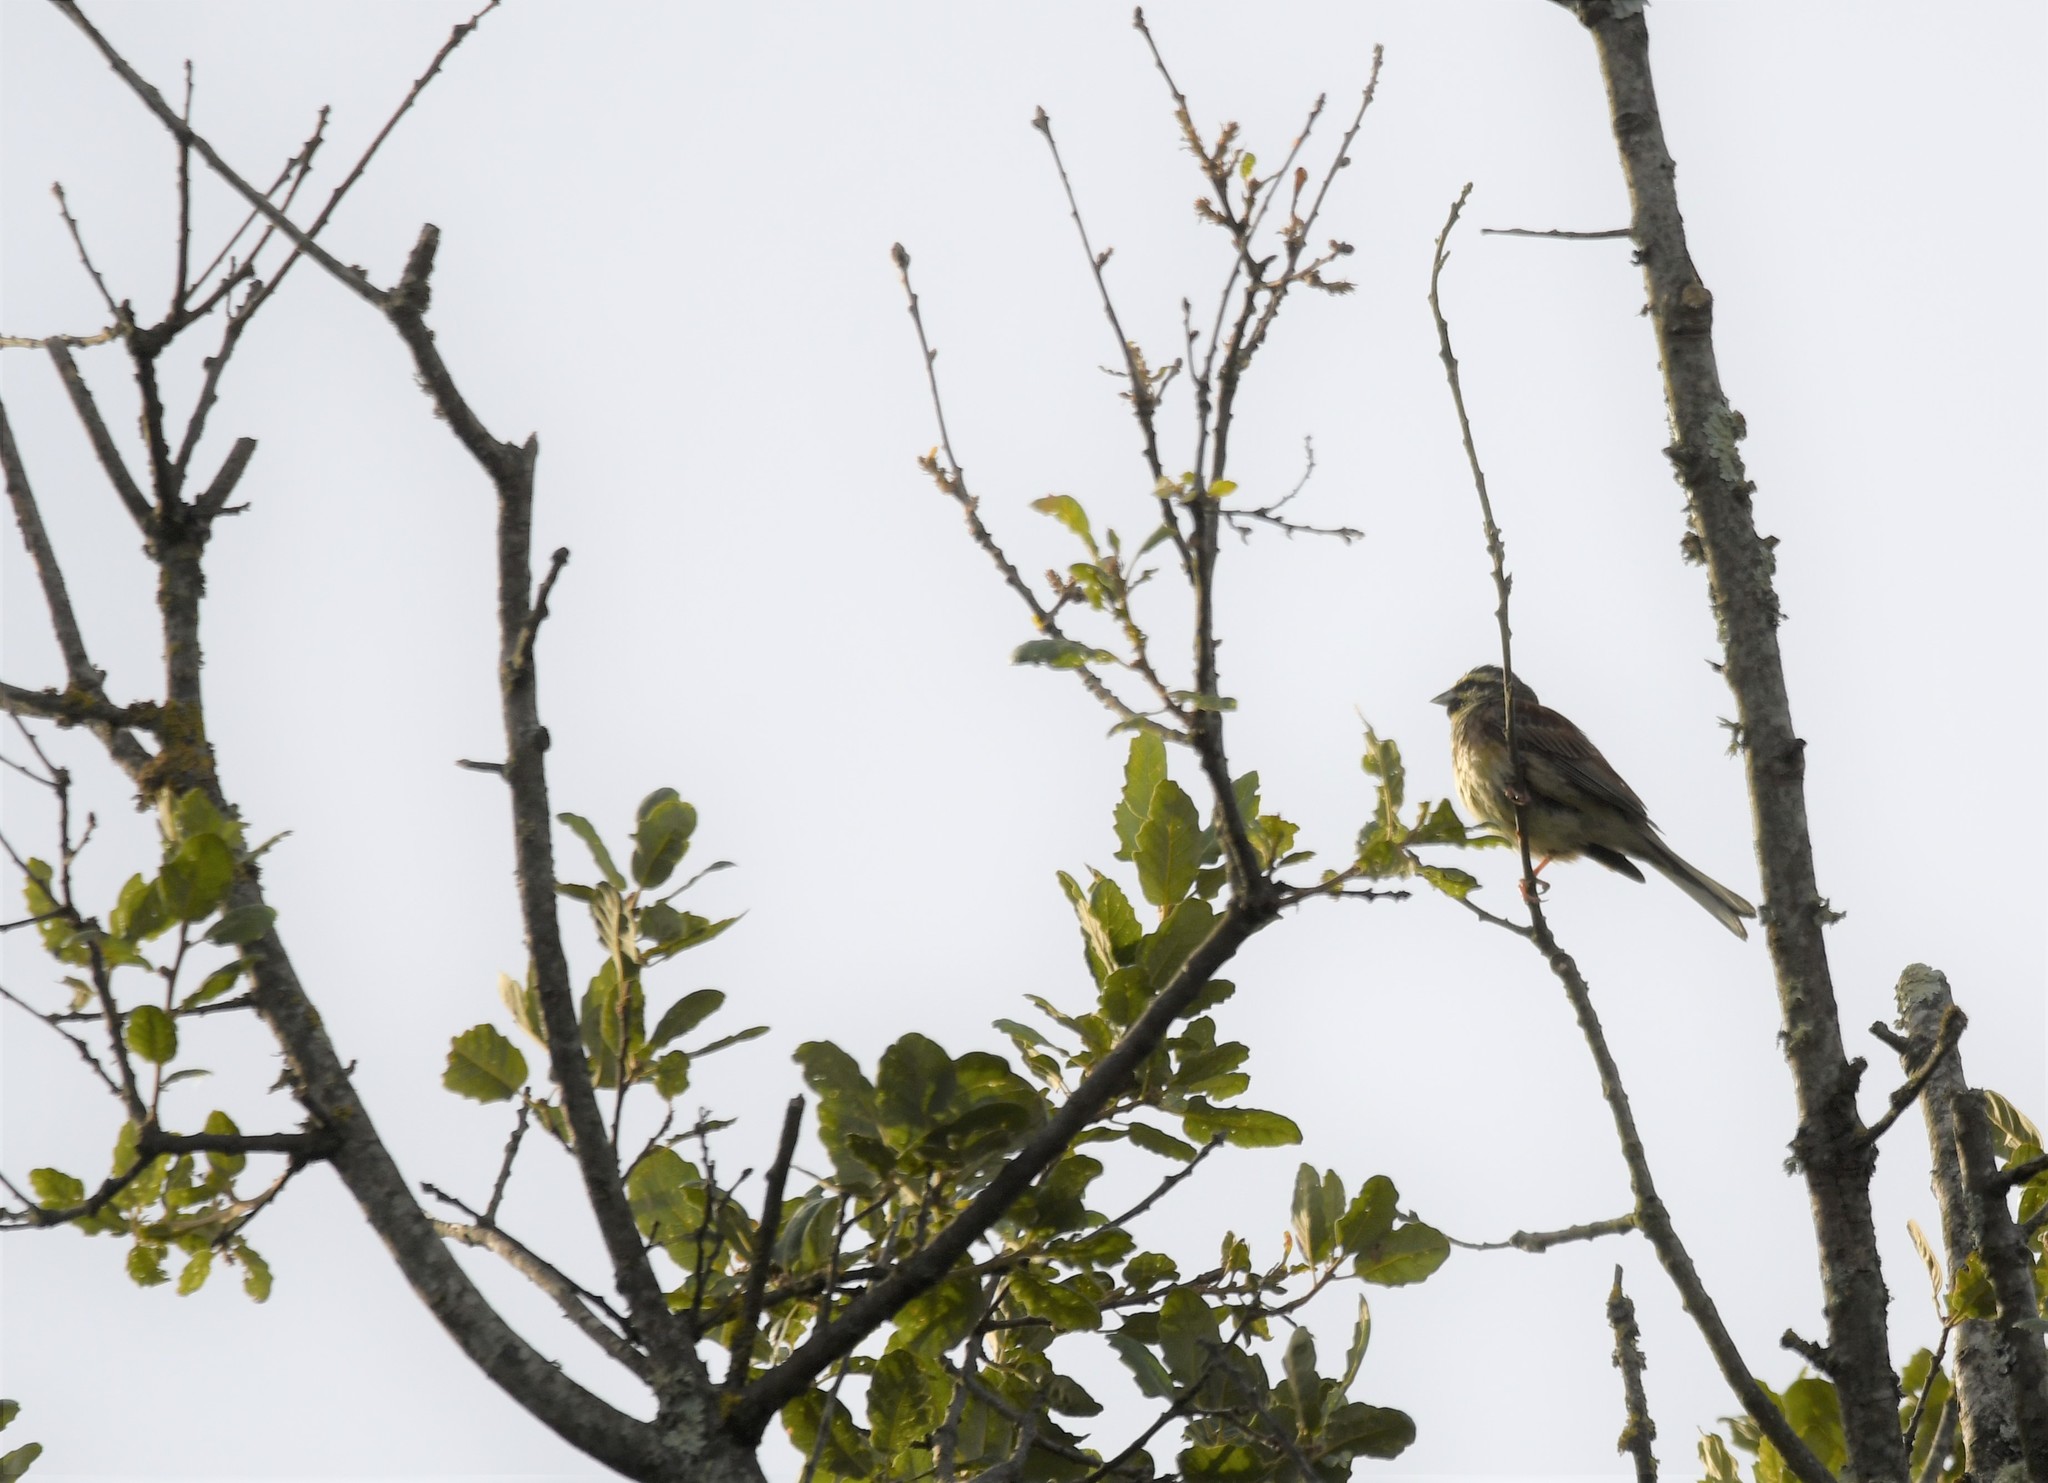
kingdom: Animalia
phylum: Chordata
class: Aves
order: Passeriformes
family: Emberizidae
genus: Emberiza
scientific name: Emberiza cirlus
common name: Cirl bunting
